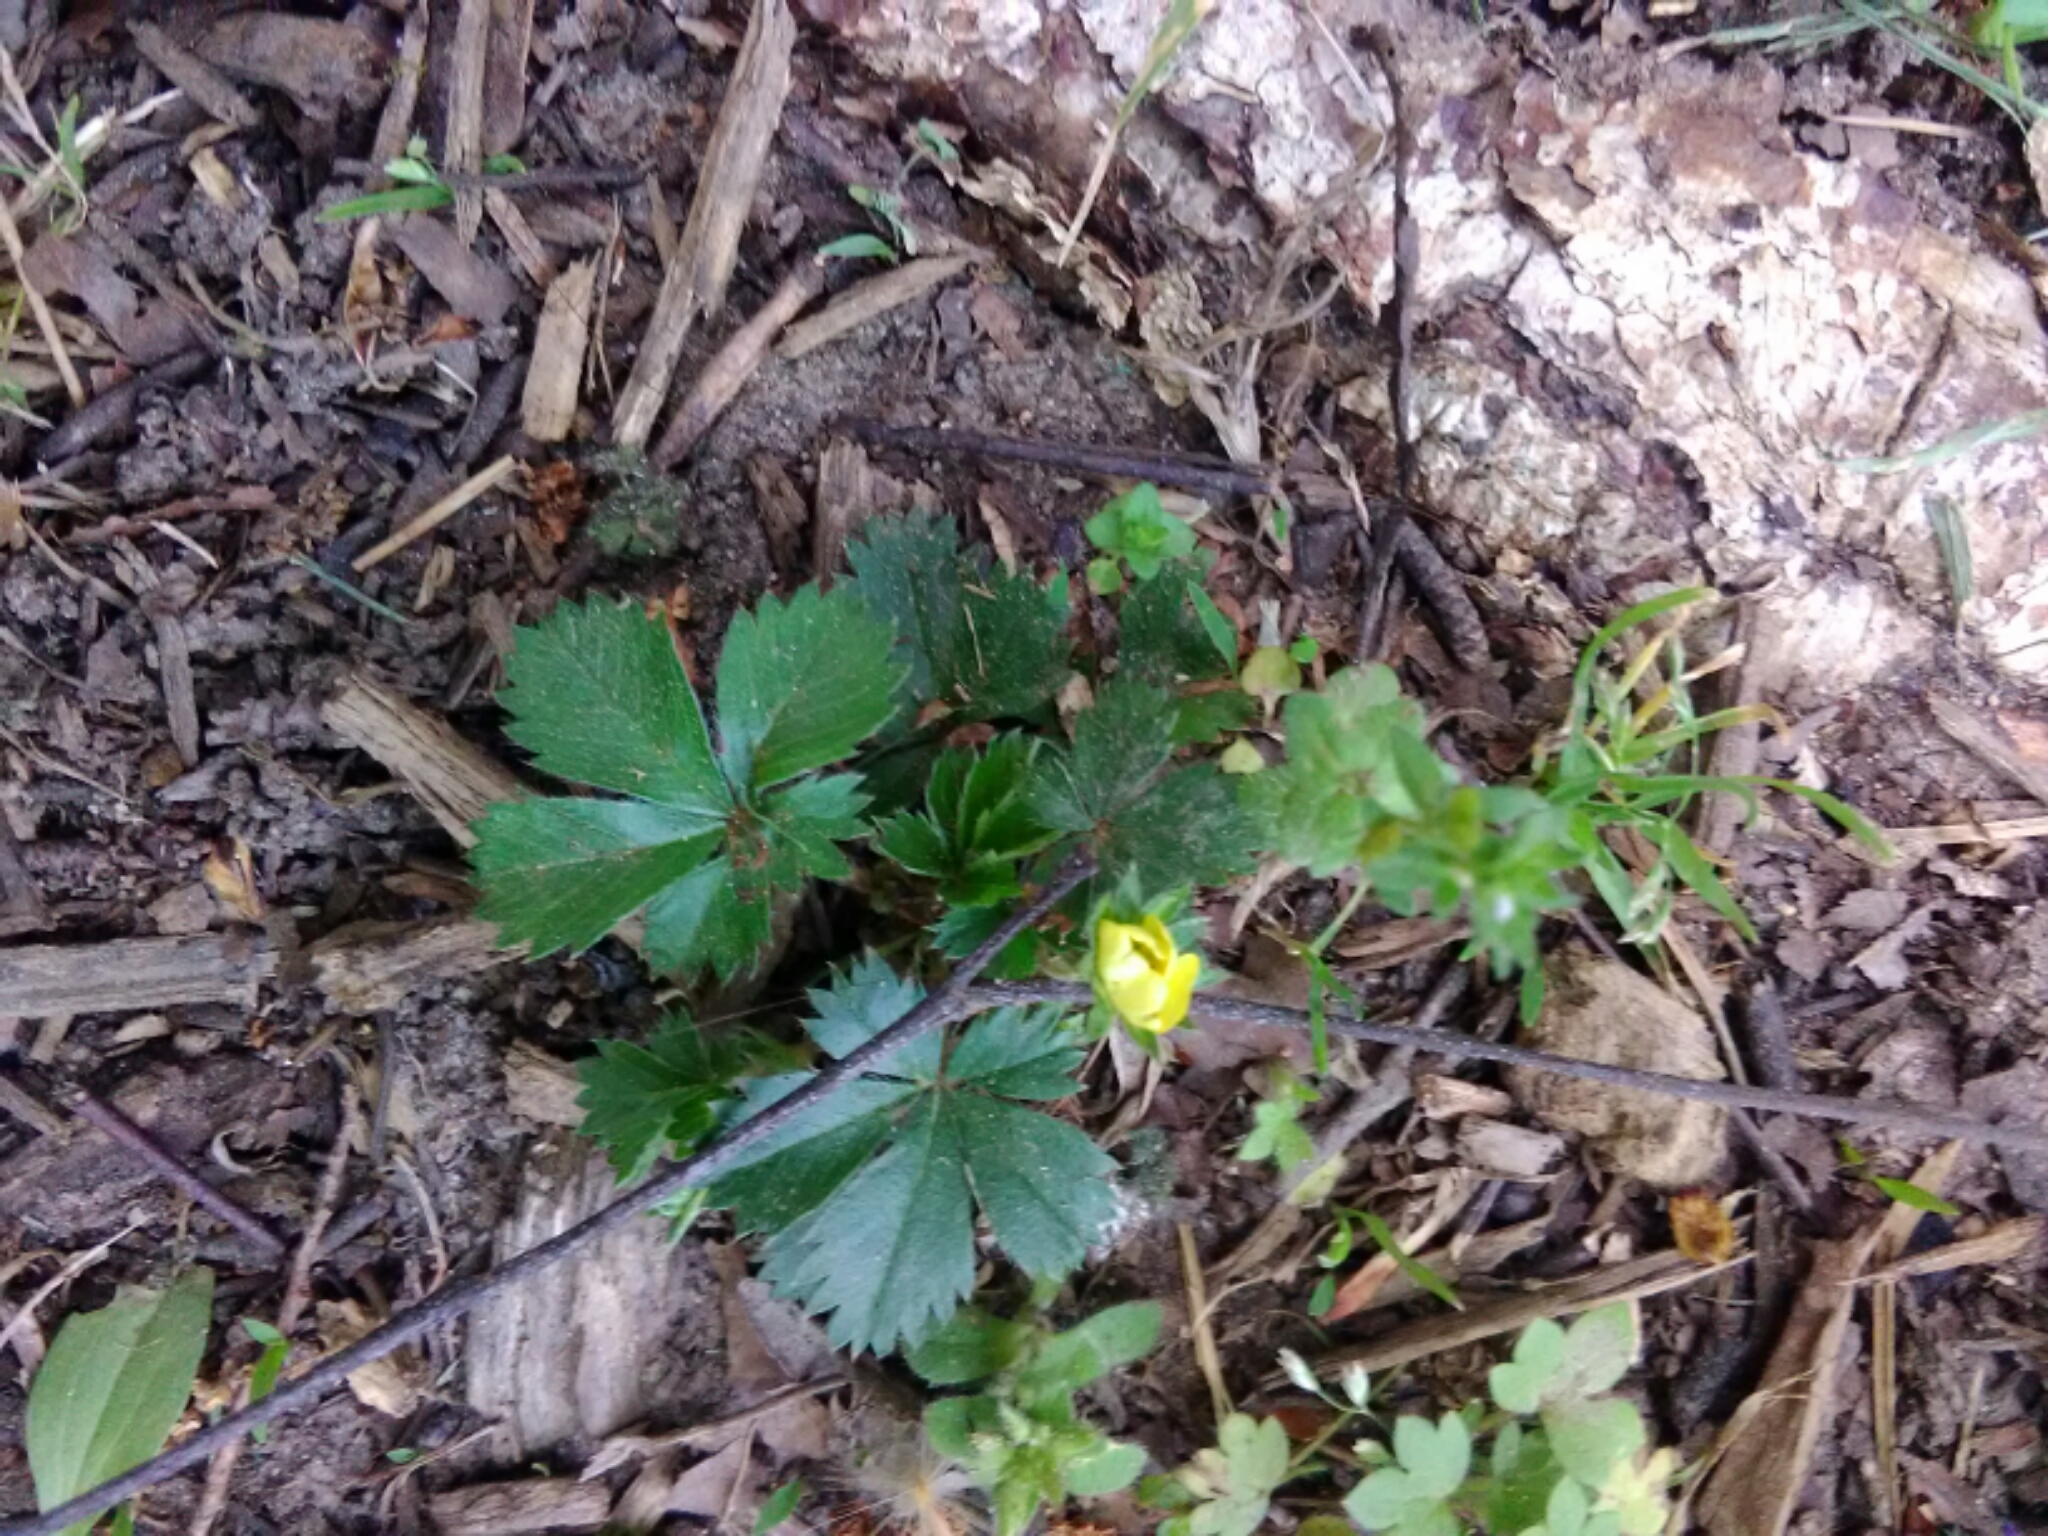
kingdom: Plantae
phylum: Tracheophyta
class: Magnoliopsida
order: Rosales
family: Rosaceae
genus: Potentilla
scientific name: Potentilla canadensis
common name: Canada cinquefoil
